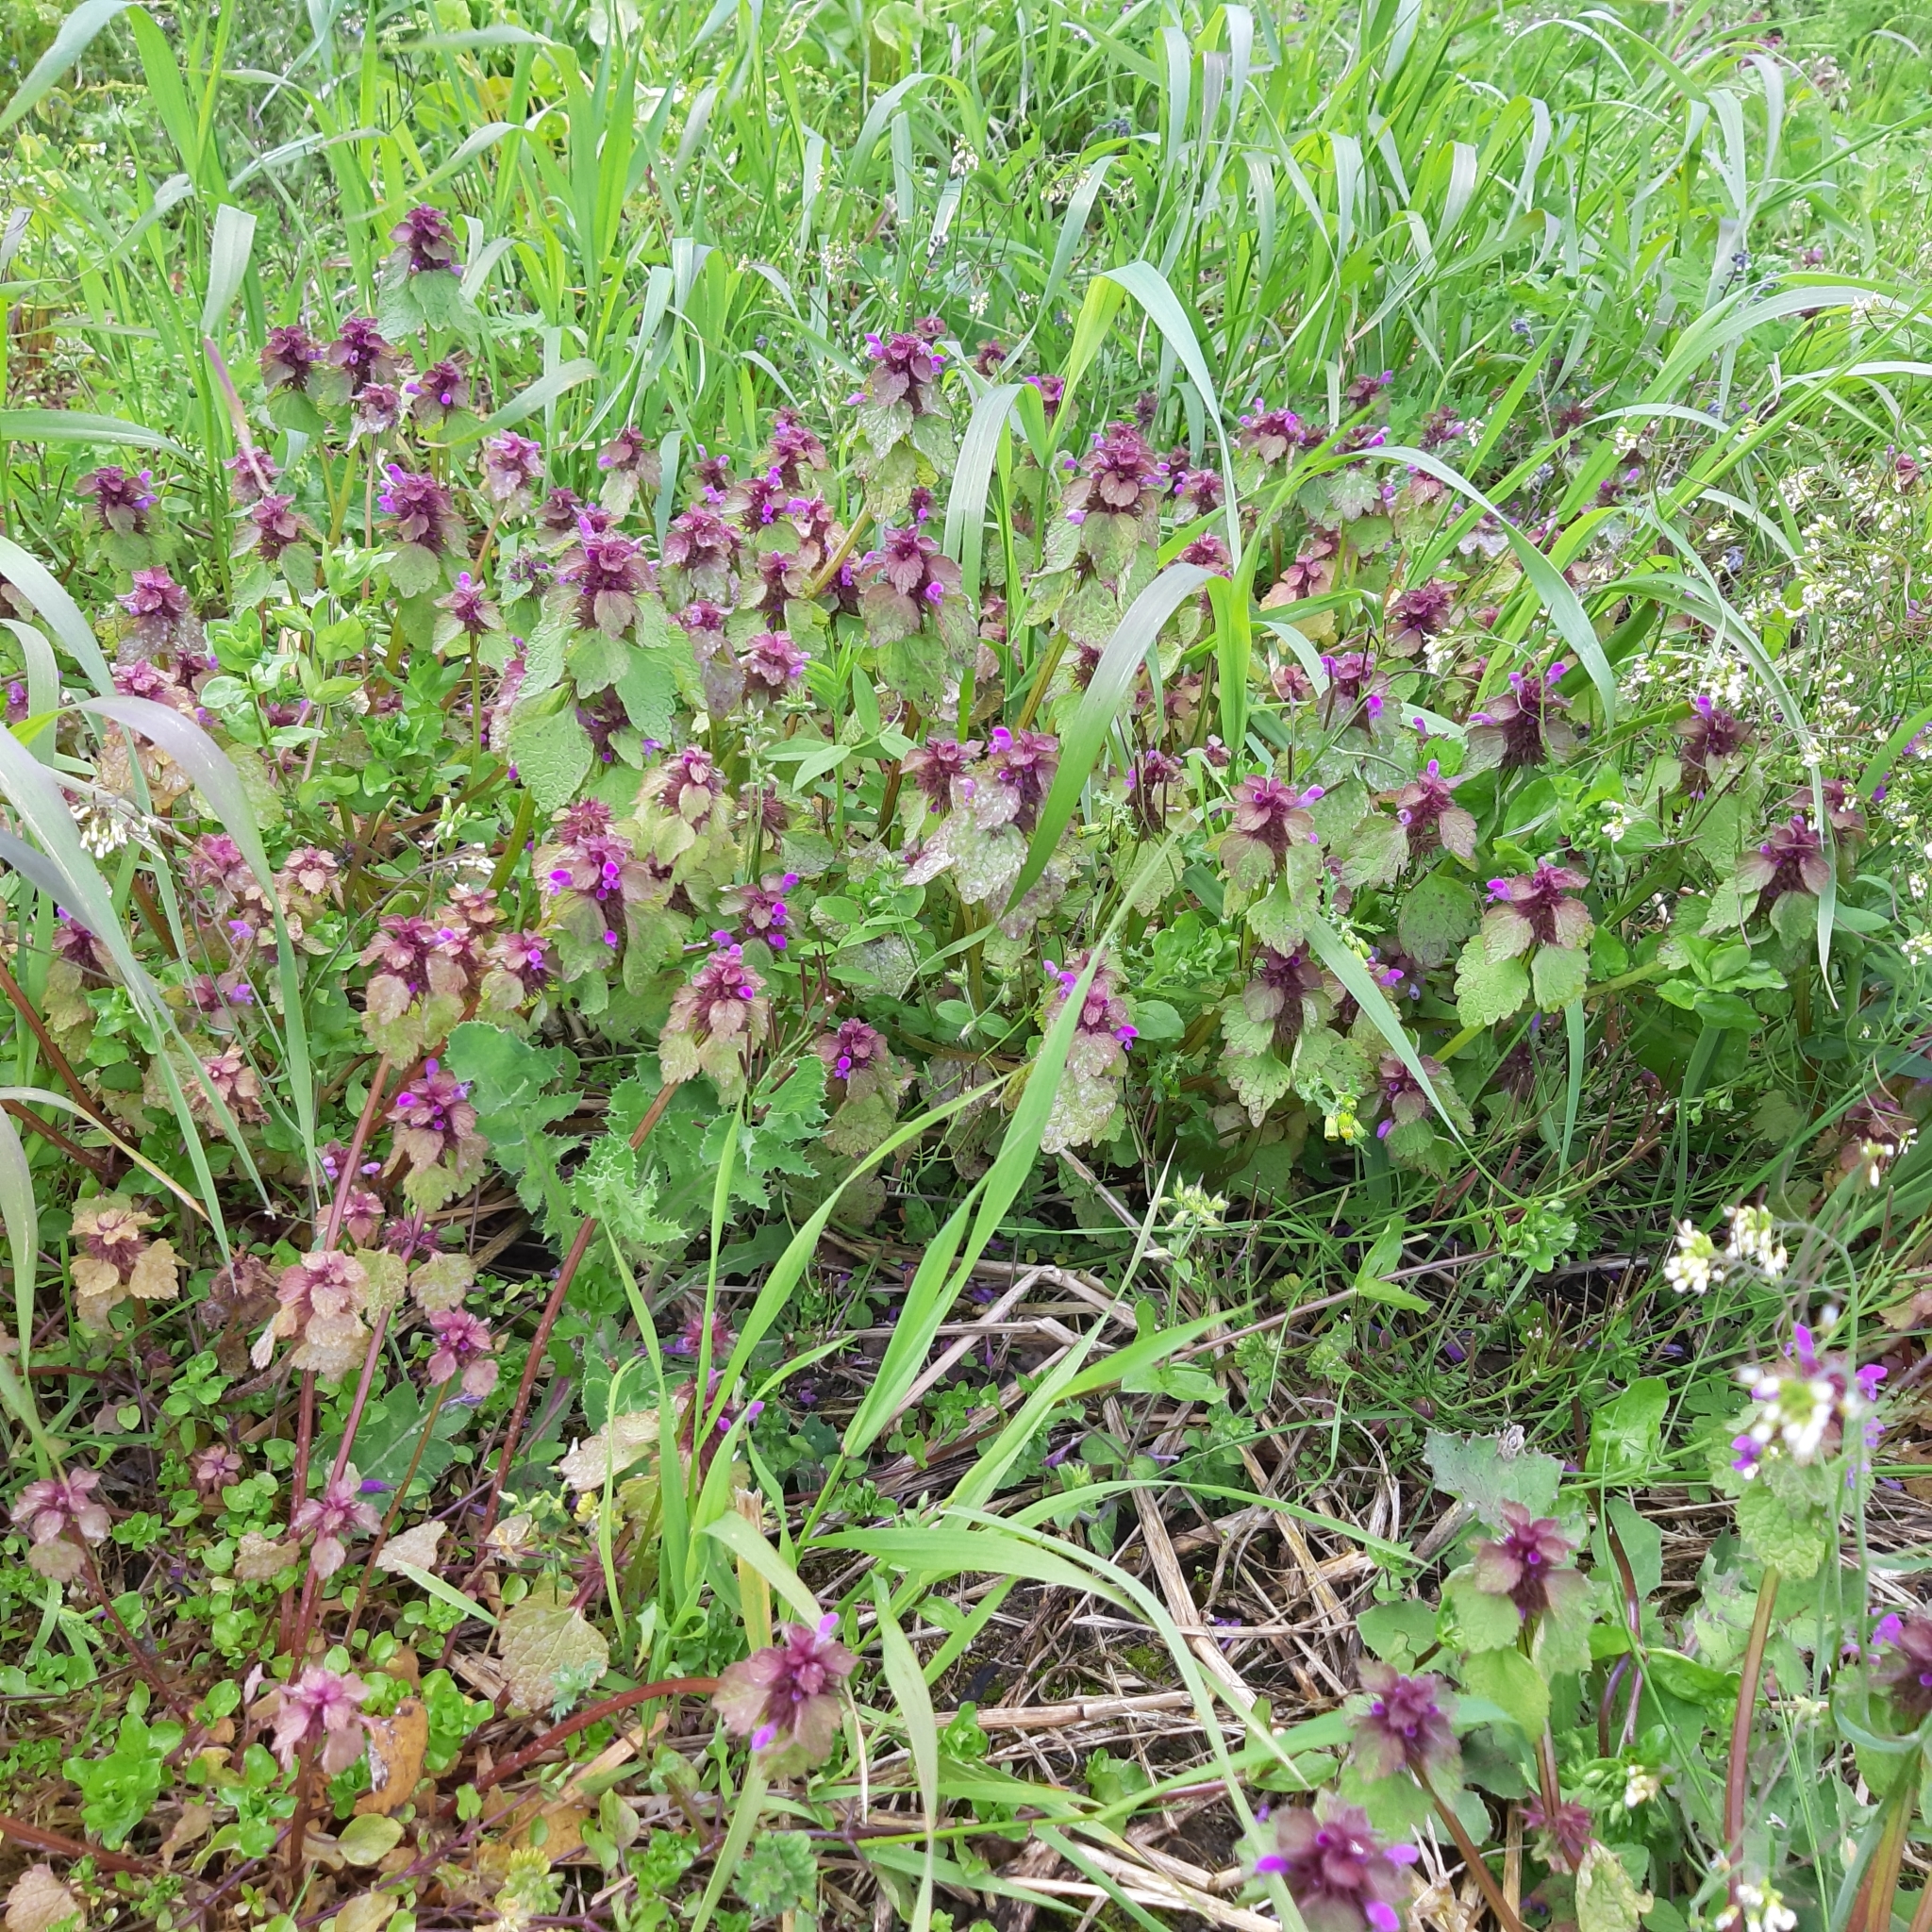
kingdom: Plantae
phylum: Tracheophyta
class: Magnoliopsida
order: Lamiales
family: Lamiaceae
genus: Lamium
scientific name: Lamium purpureum
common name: Red dead-nettle
